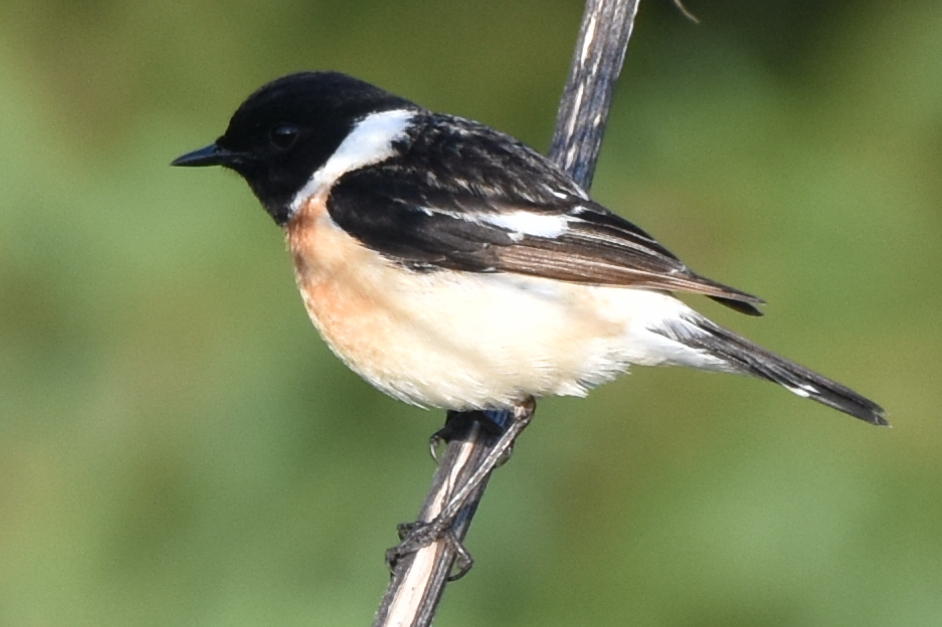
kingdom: Animalia
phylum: Chordata
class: Aves
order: Passeriformes
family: Muscicapidae
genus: Saxicola
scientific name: Saxicola maurus
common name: Siberian stonechat
